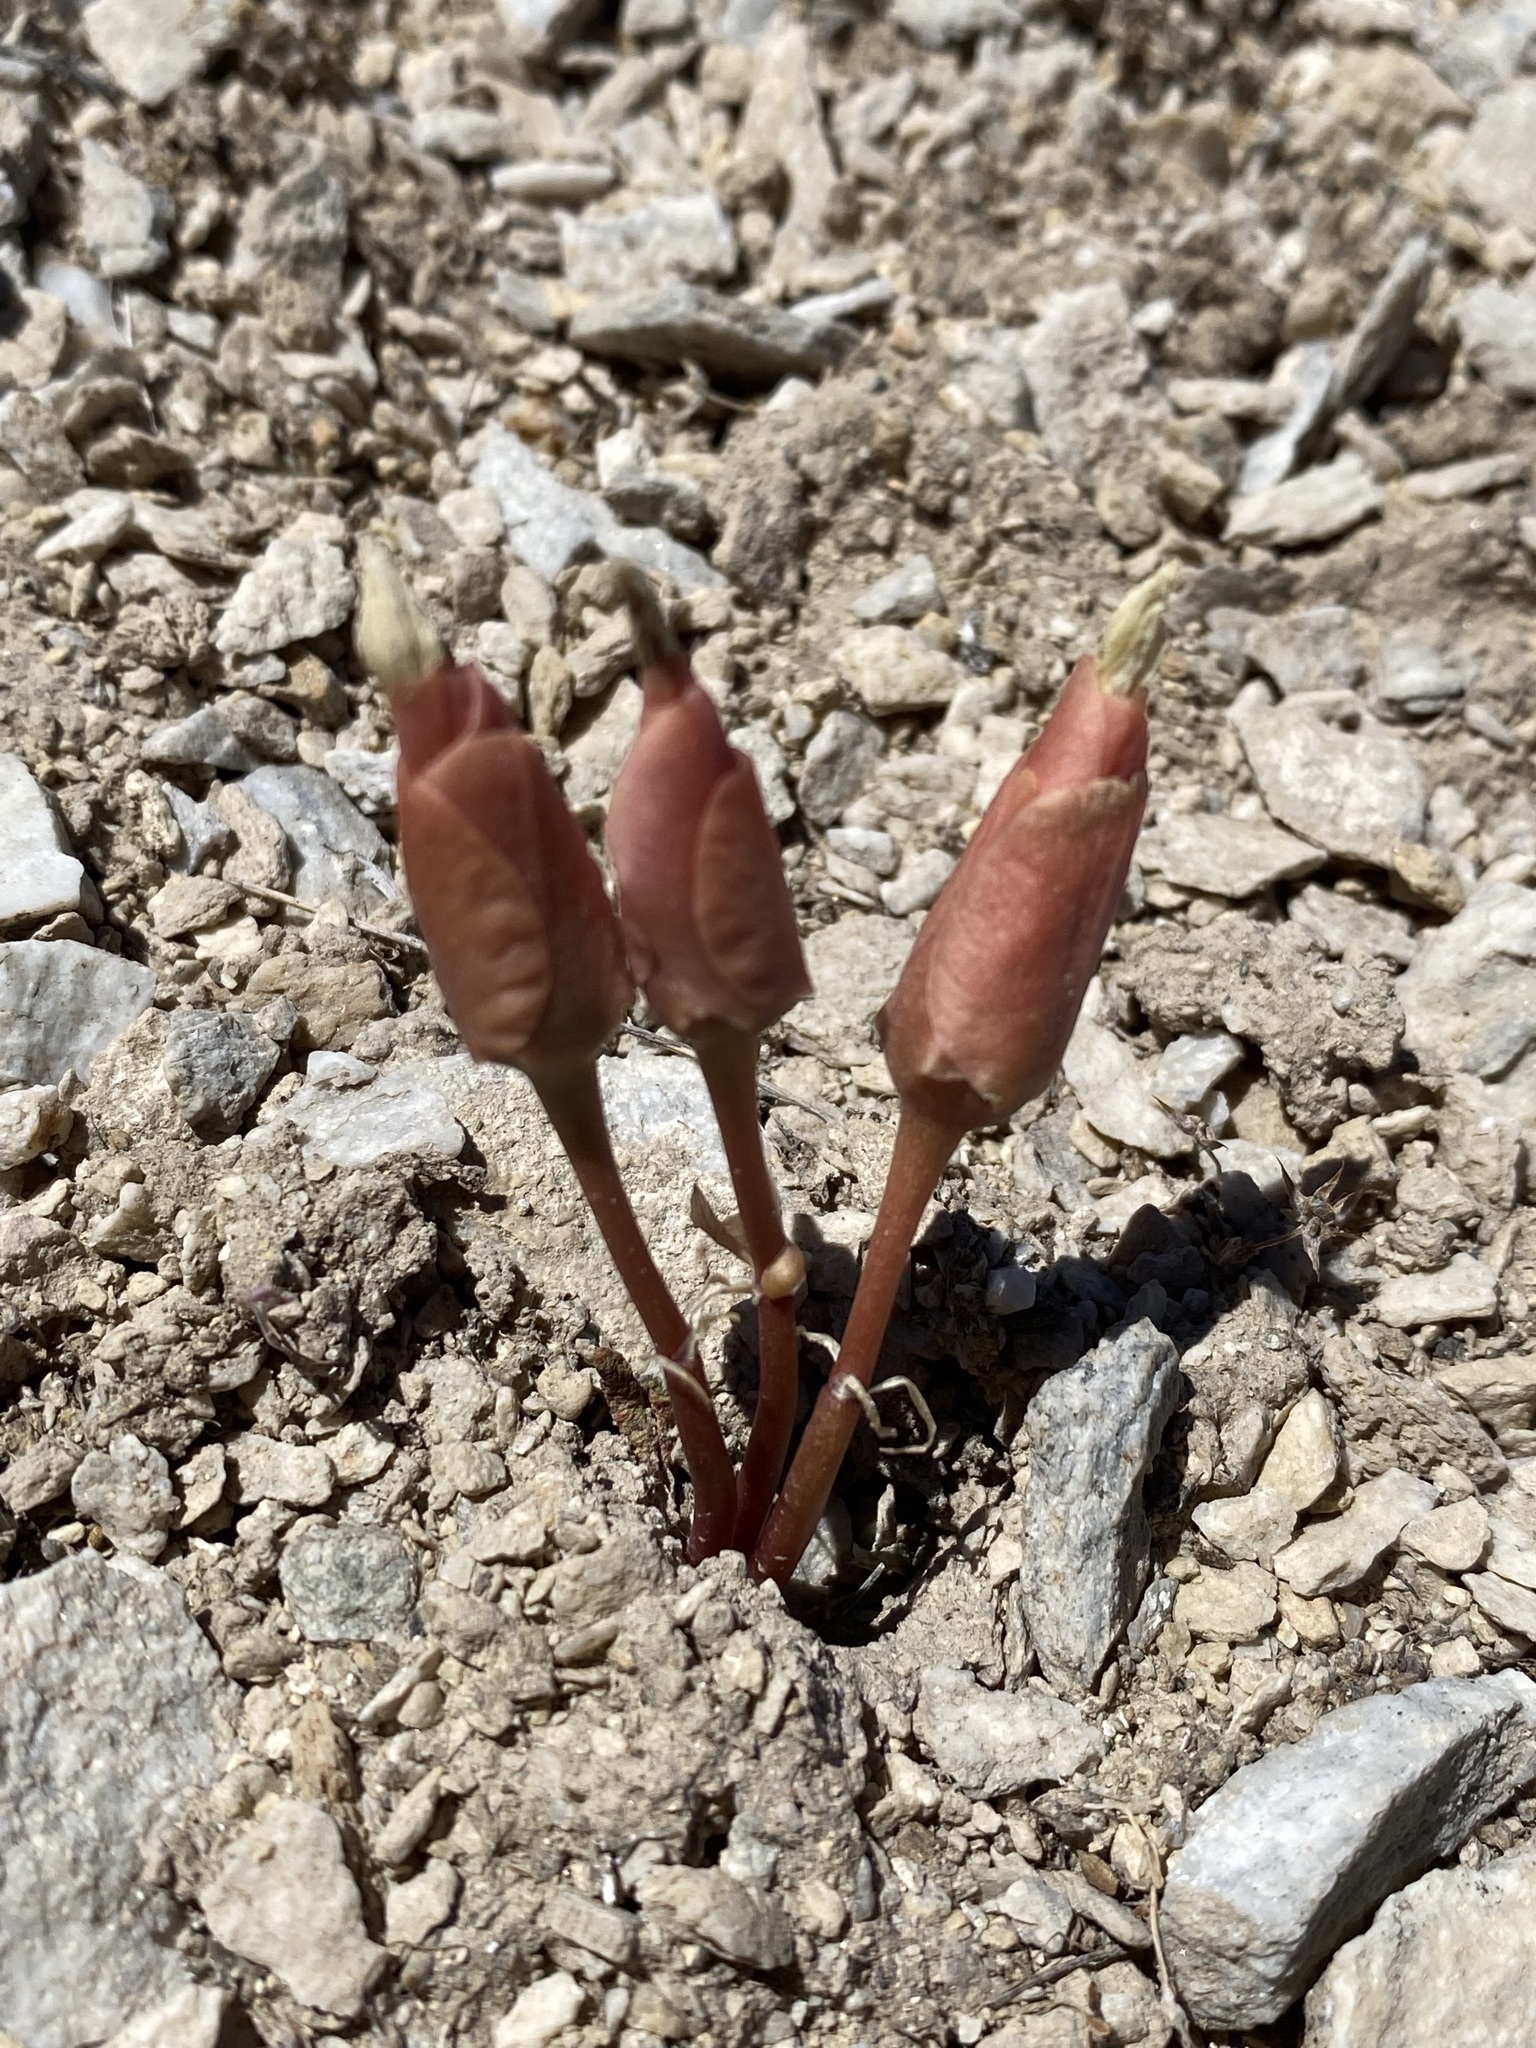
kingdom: Plantae
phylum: Tracheophyta
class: Magnoliopsida
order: Caryophyllales
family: Montiaceae
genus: Lewisia
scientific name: Lewisia rediviva
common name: Bitter-root
